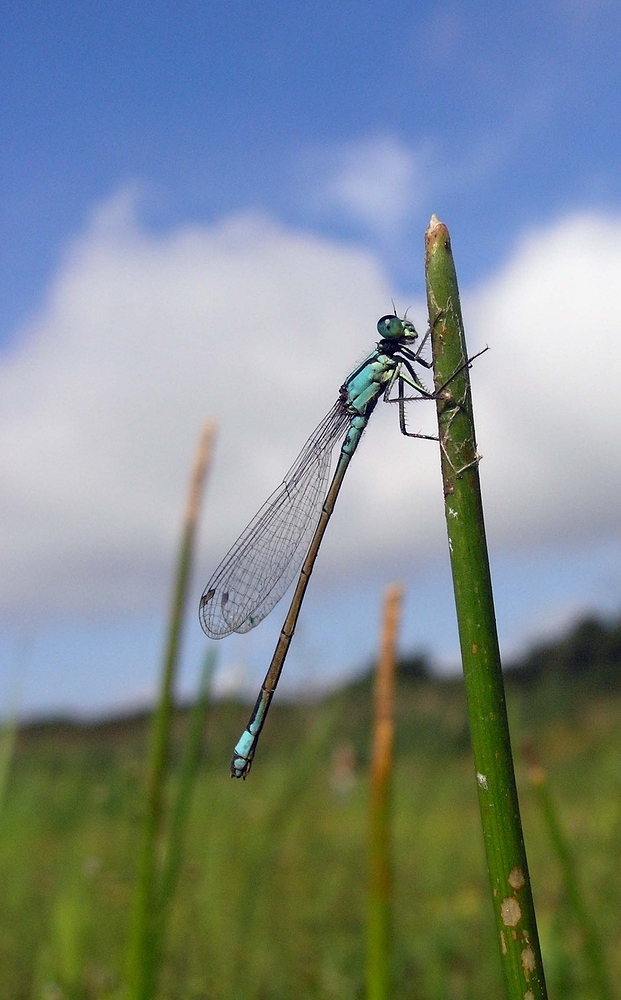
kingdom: Animalia
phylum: Arthropoda
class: Insecta
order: Odonata
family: Coenagrionidae
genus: Ischnura
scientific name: Ischnura elegans
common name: Blue-tailed damselfly
